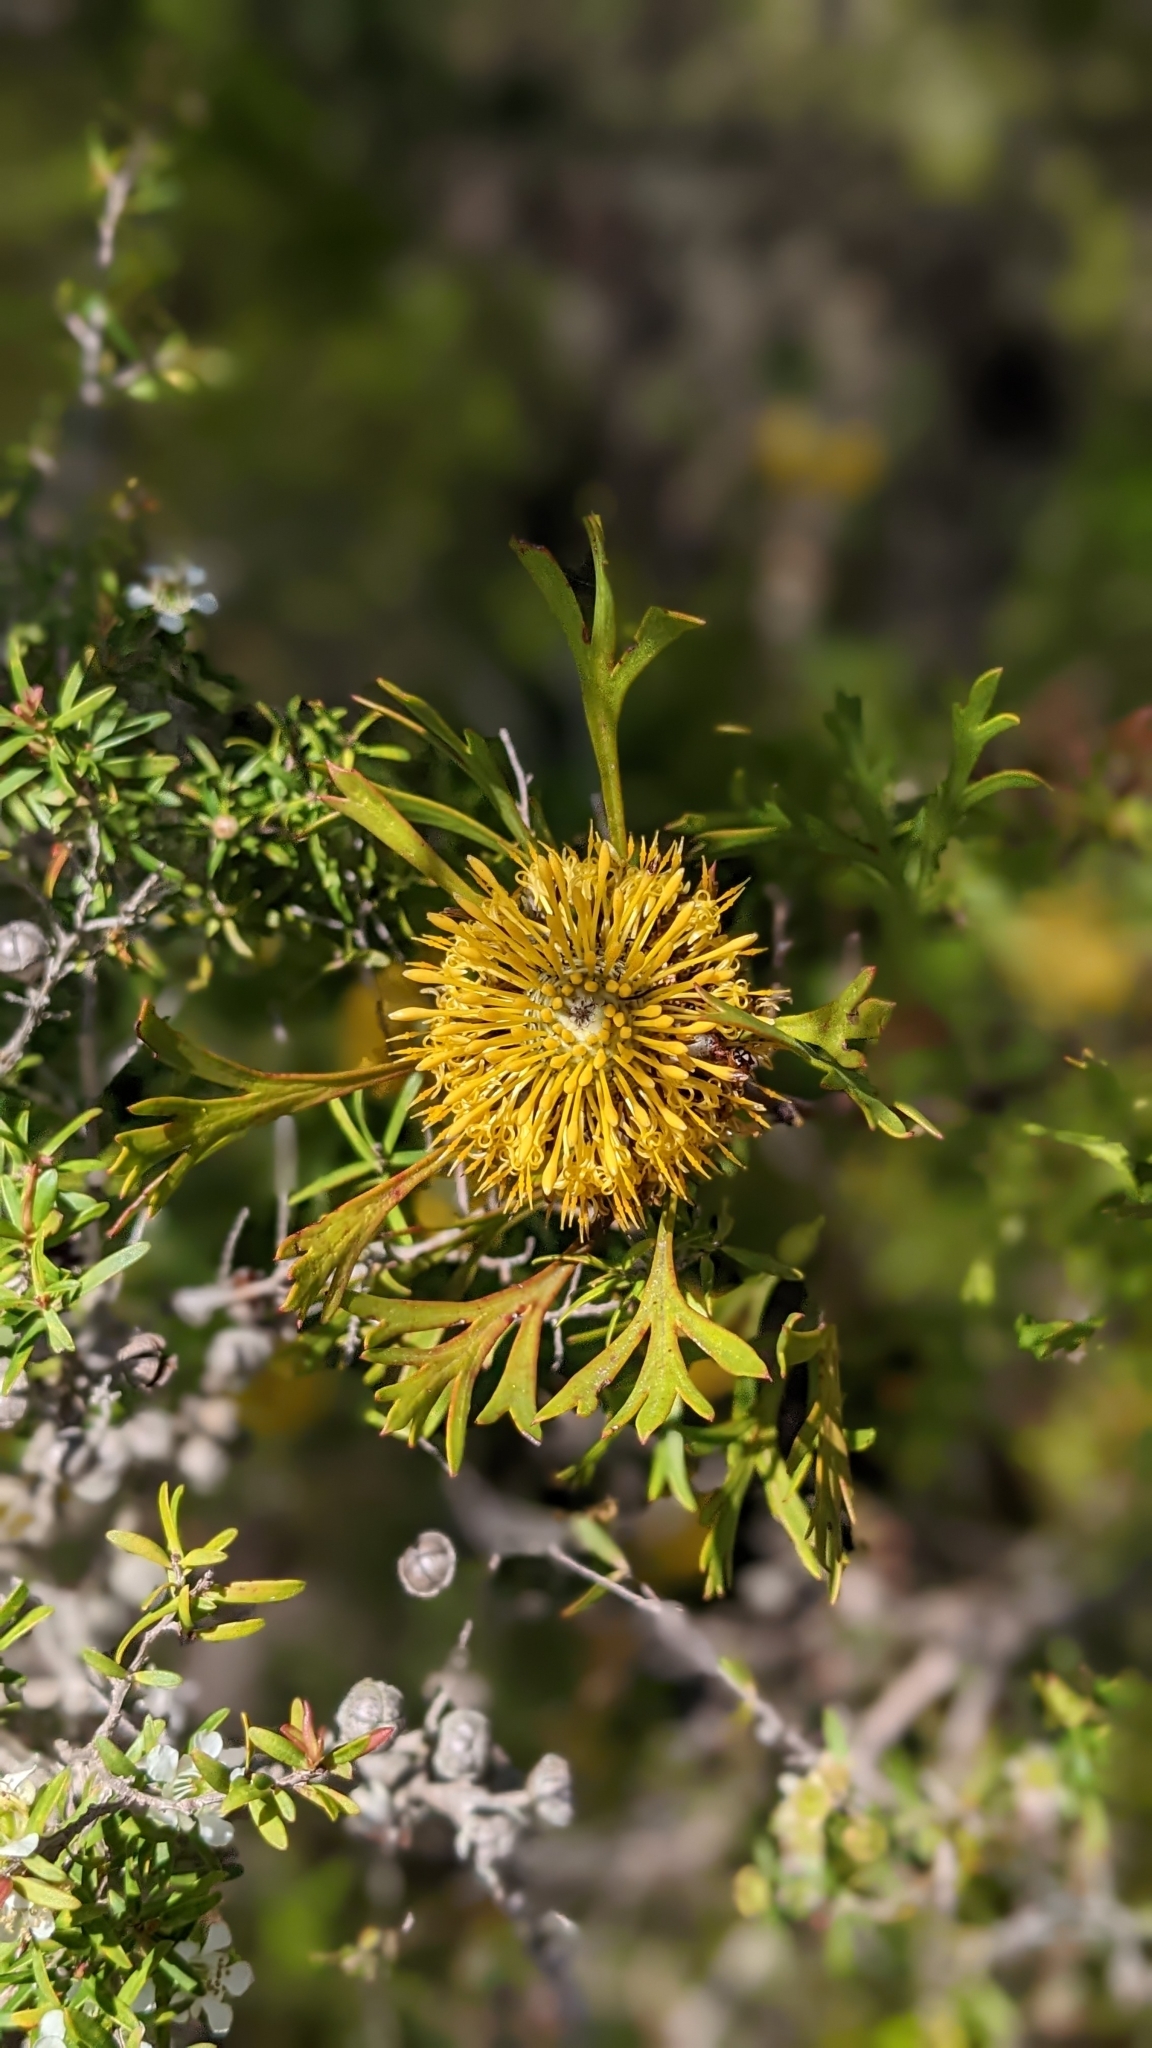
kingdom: Plantae
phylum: Tracheophyta
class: Magnoliopsida
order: Proteales
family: Proteaceae
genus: Isopogon
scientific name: Isopogon anemonifolius
